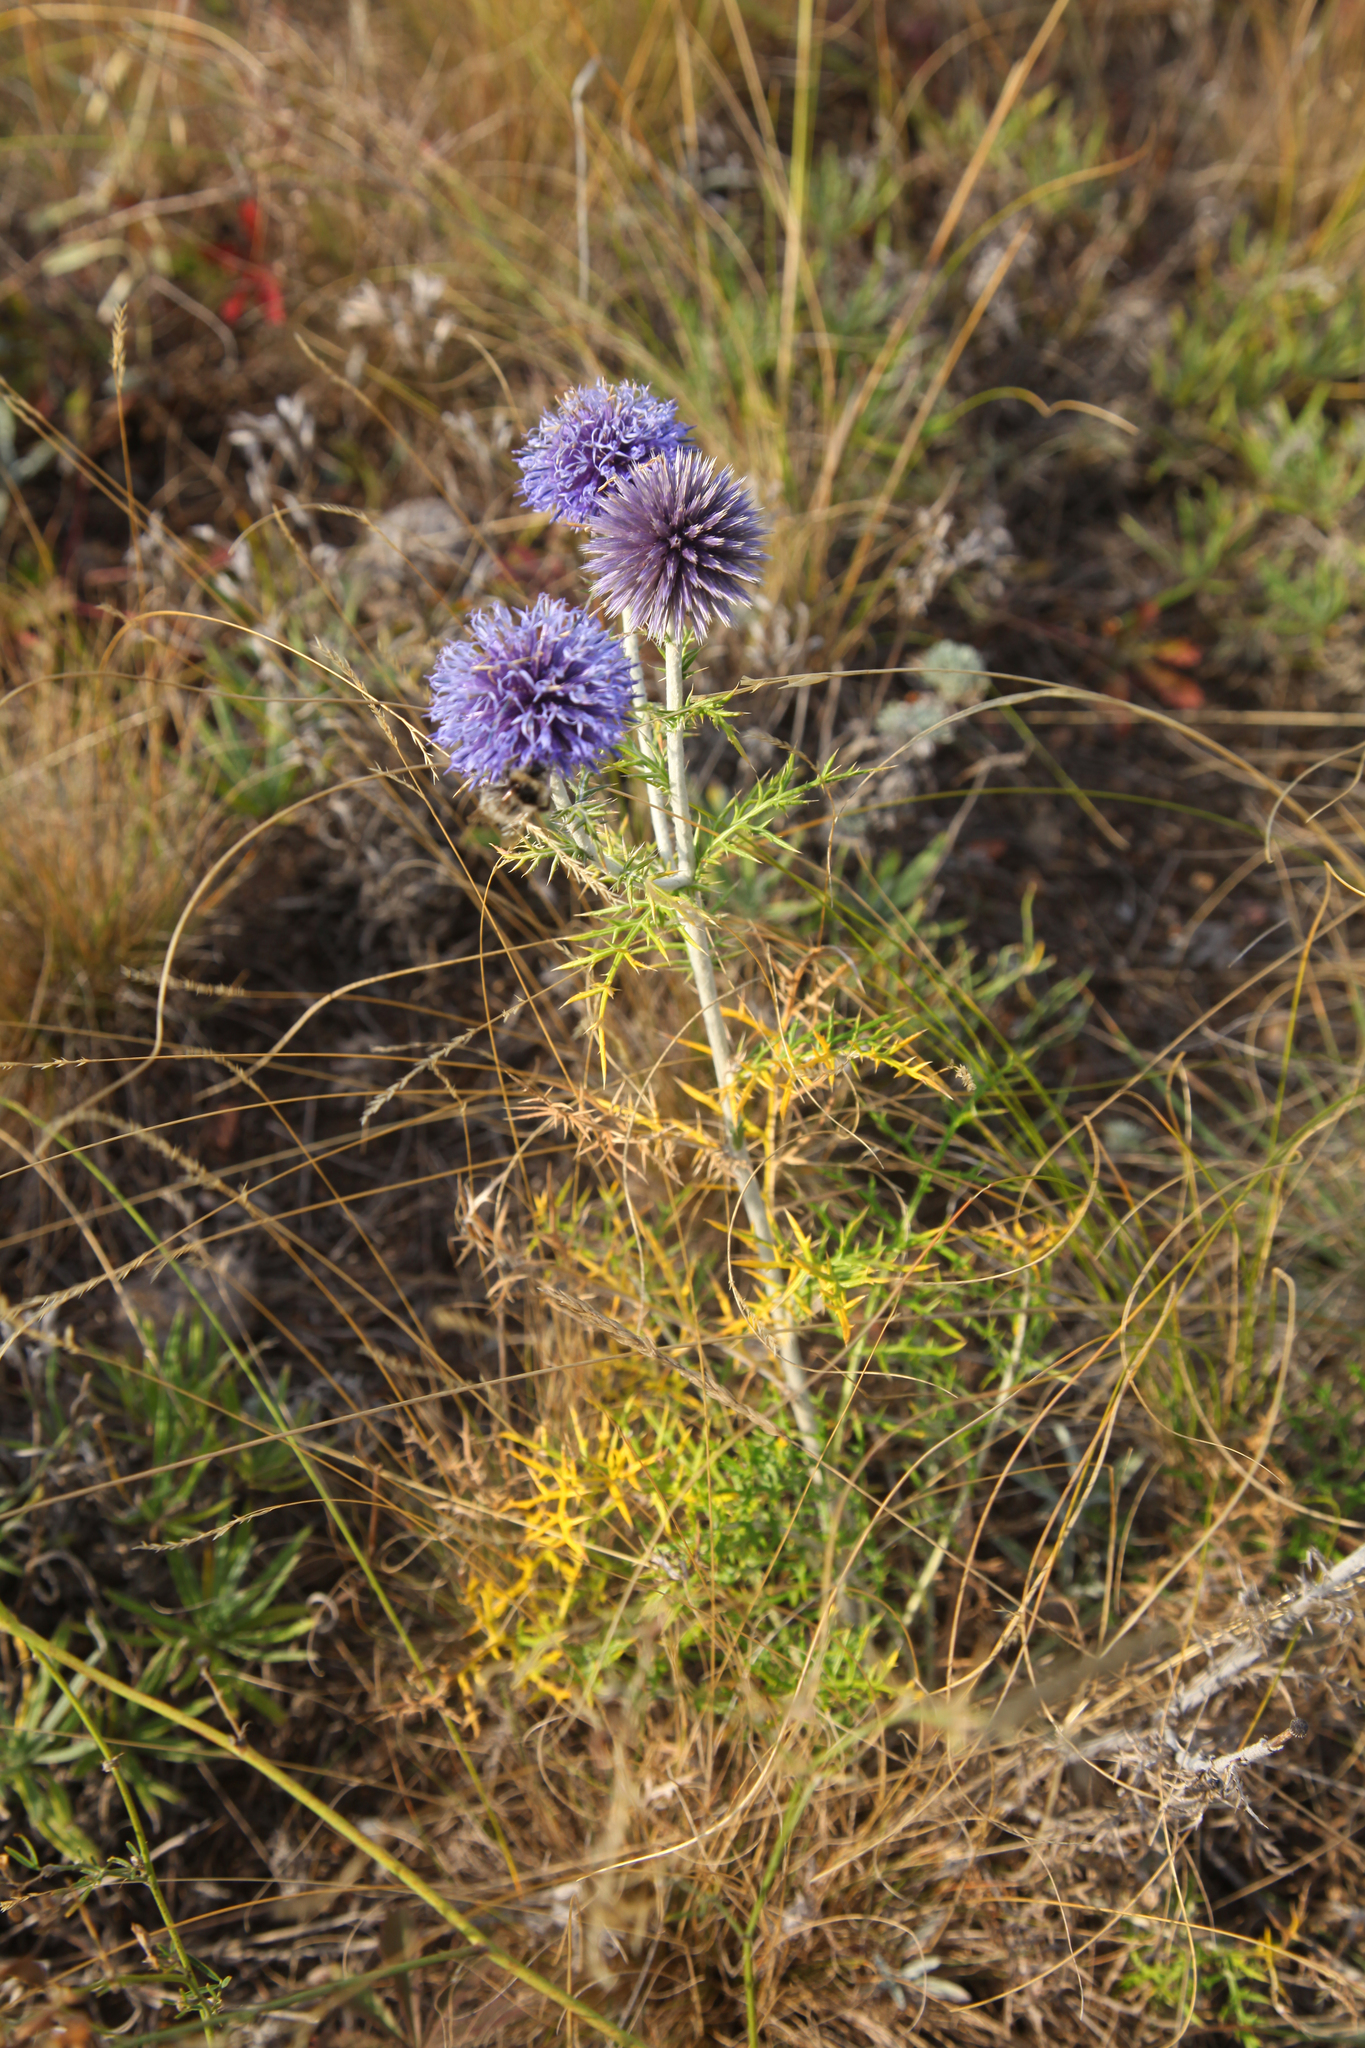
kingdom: Plantae
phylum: Tracheophyta
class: Magnoliopsida
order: Asterales
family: Asteraceae
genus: Echinops
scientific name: Echinops ritro
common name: Globe thistle
